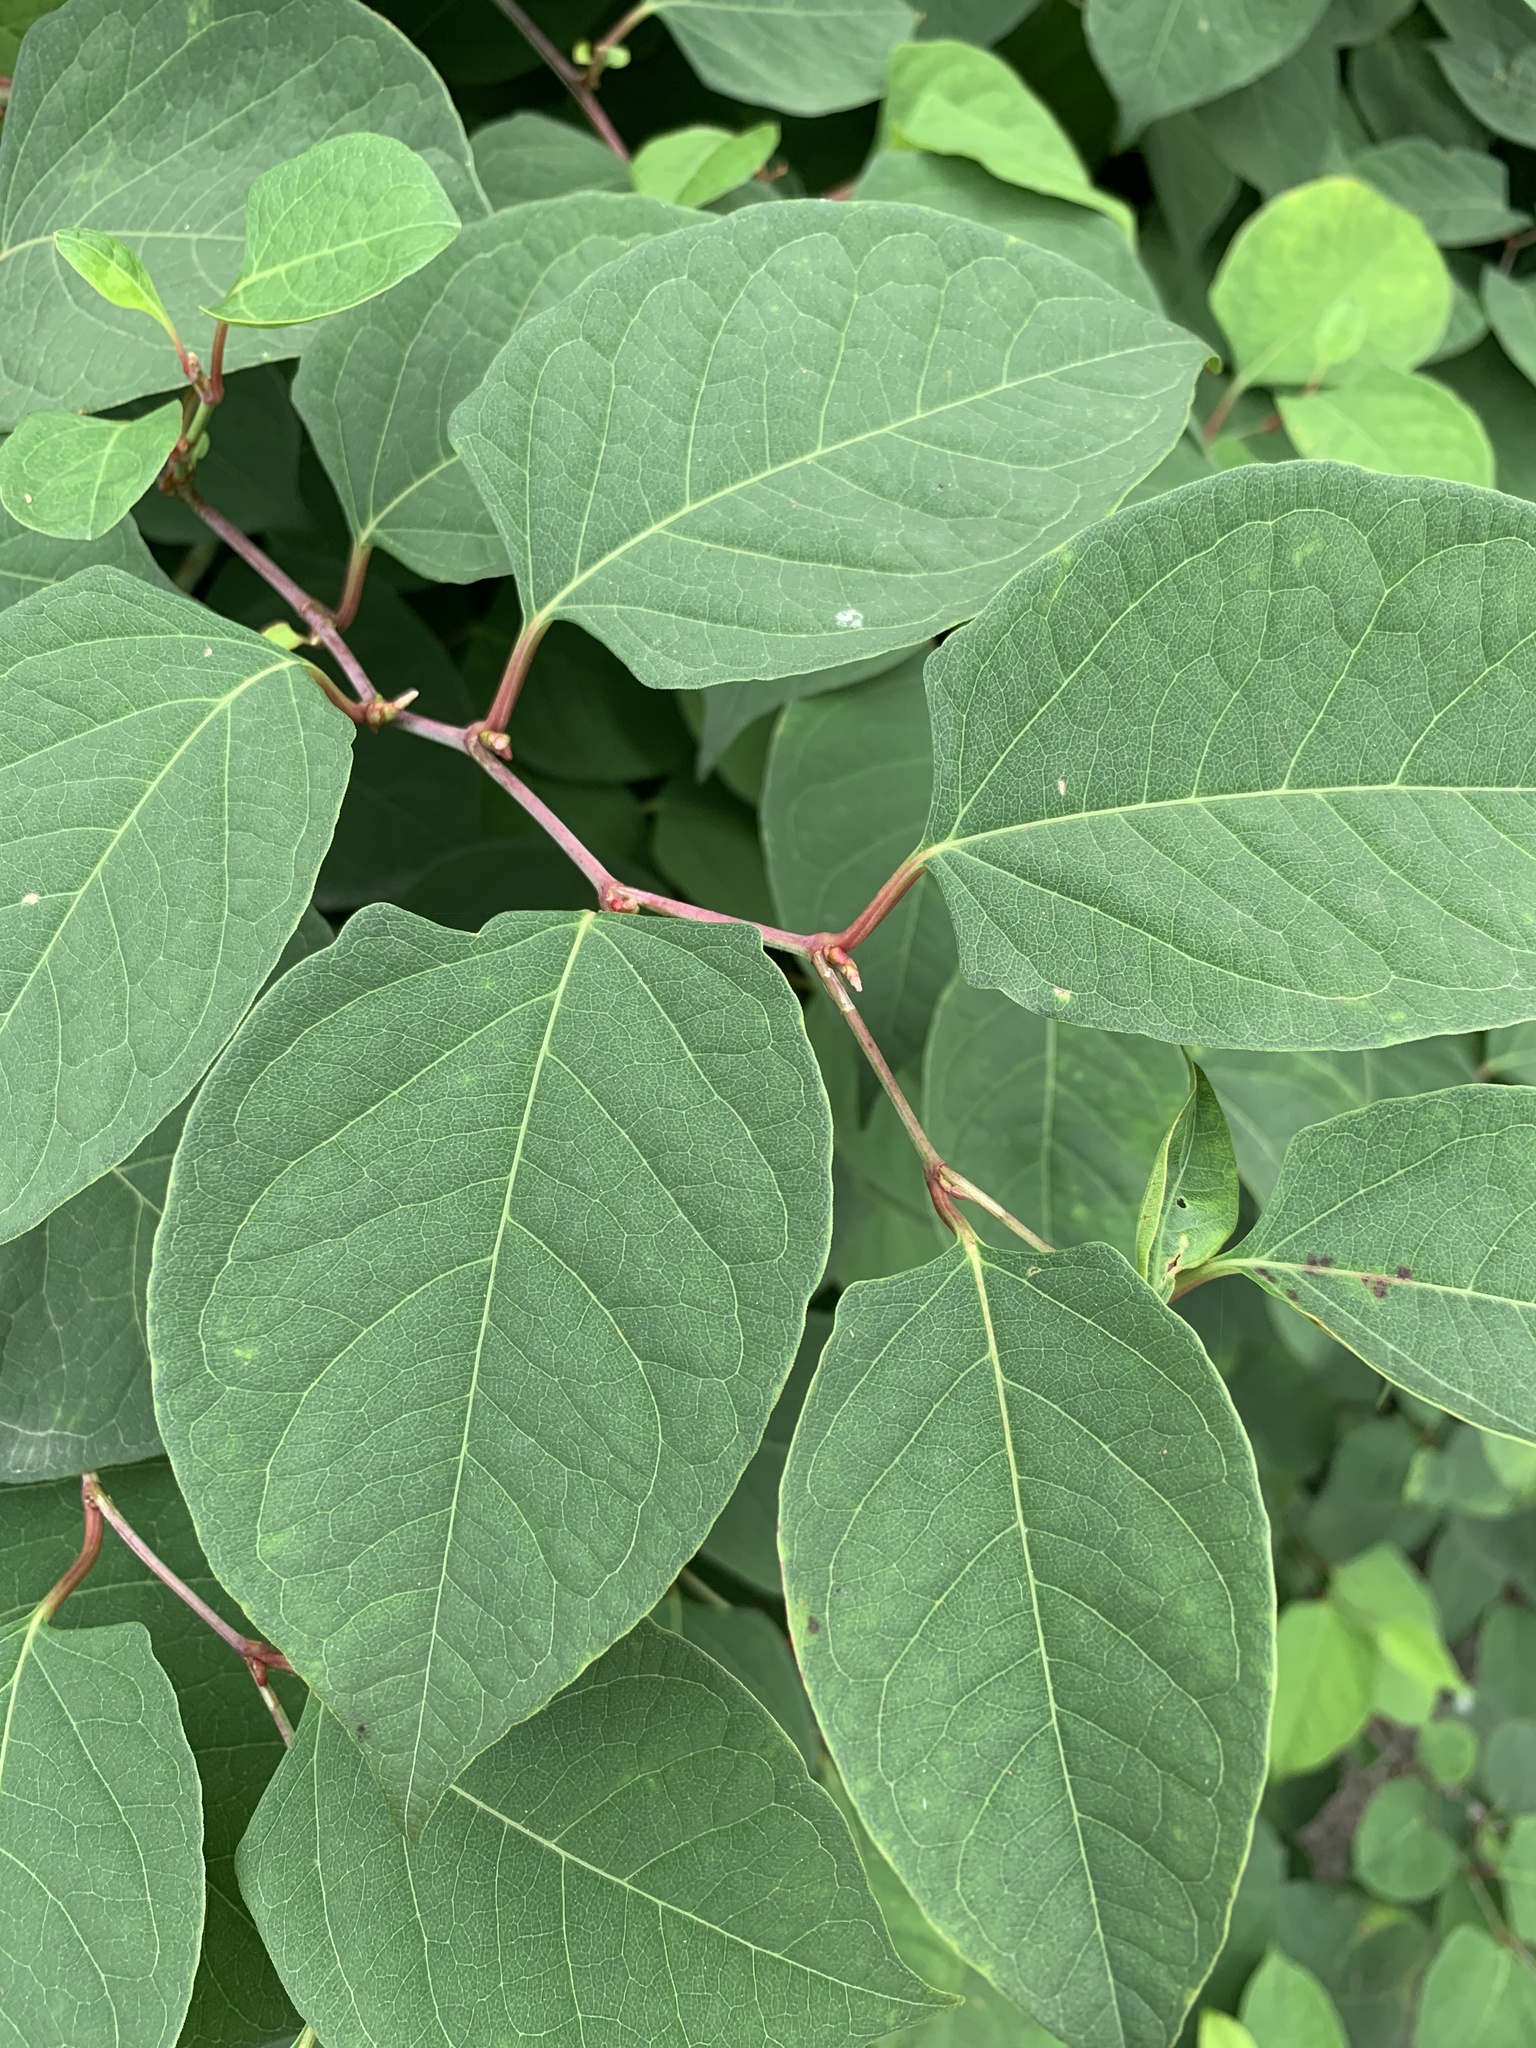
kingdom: Plantae
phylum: Tracheophyta
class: Magnoliopsida
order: Caryophyllales
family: Polygonaceae
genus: Reynoutria
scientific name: Reynoutria japonica
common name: Japanese knotweed
